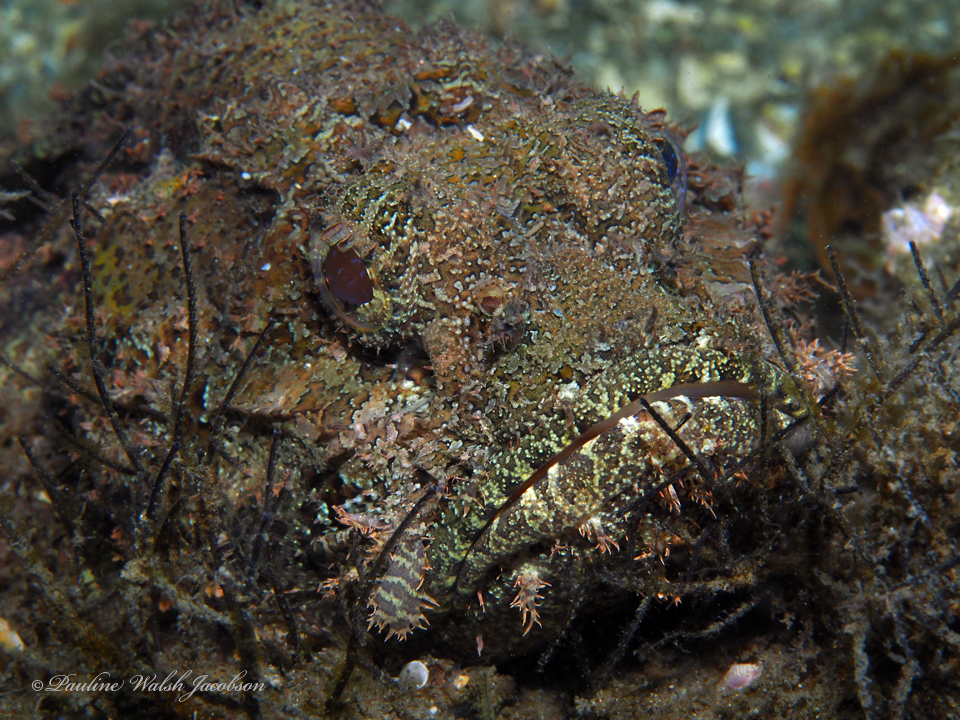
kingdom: Animalia
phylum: Chordata
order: Scorpaeniformes
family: Scorpaenidae
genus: Scorpaena
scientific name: Scorpaena plumieri
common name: Spotted scorpionfish
